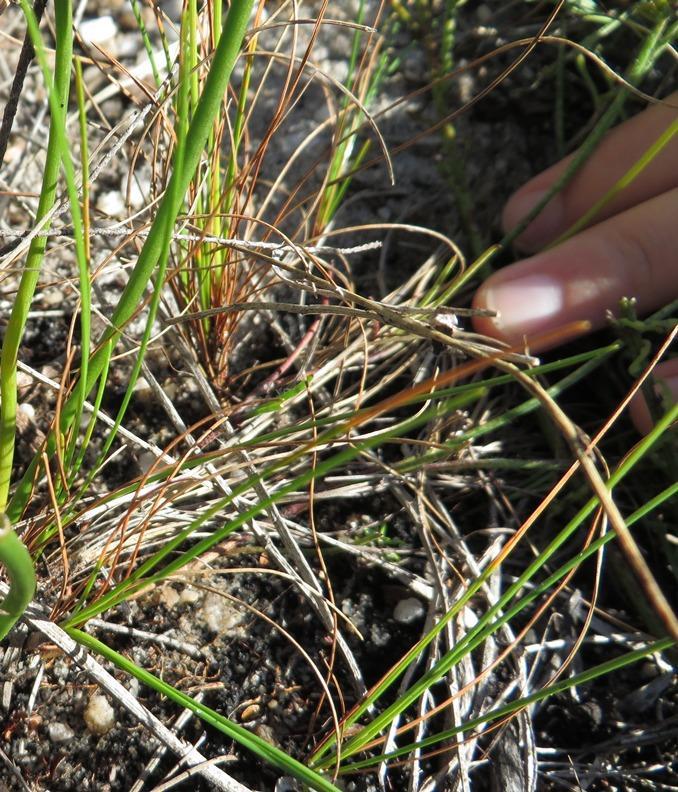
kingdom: Plantae
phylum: Tracheophyta
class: Liliopsida
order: Asparagales
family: Asparagaceae
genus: Drimia
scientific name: Drimia salteri
